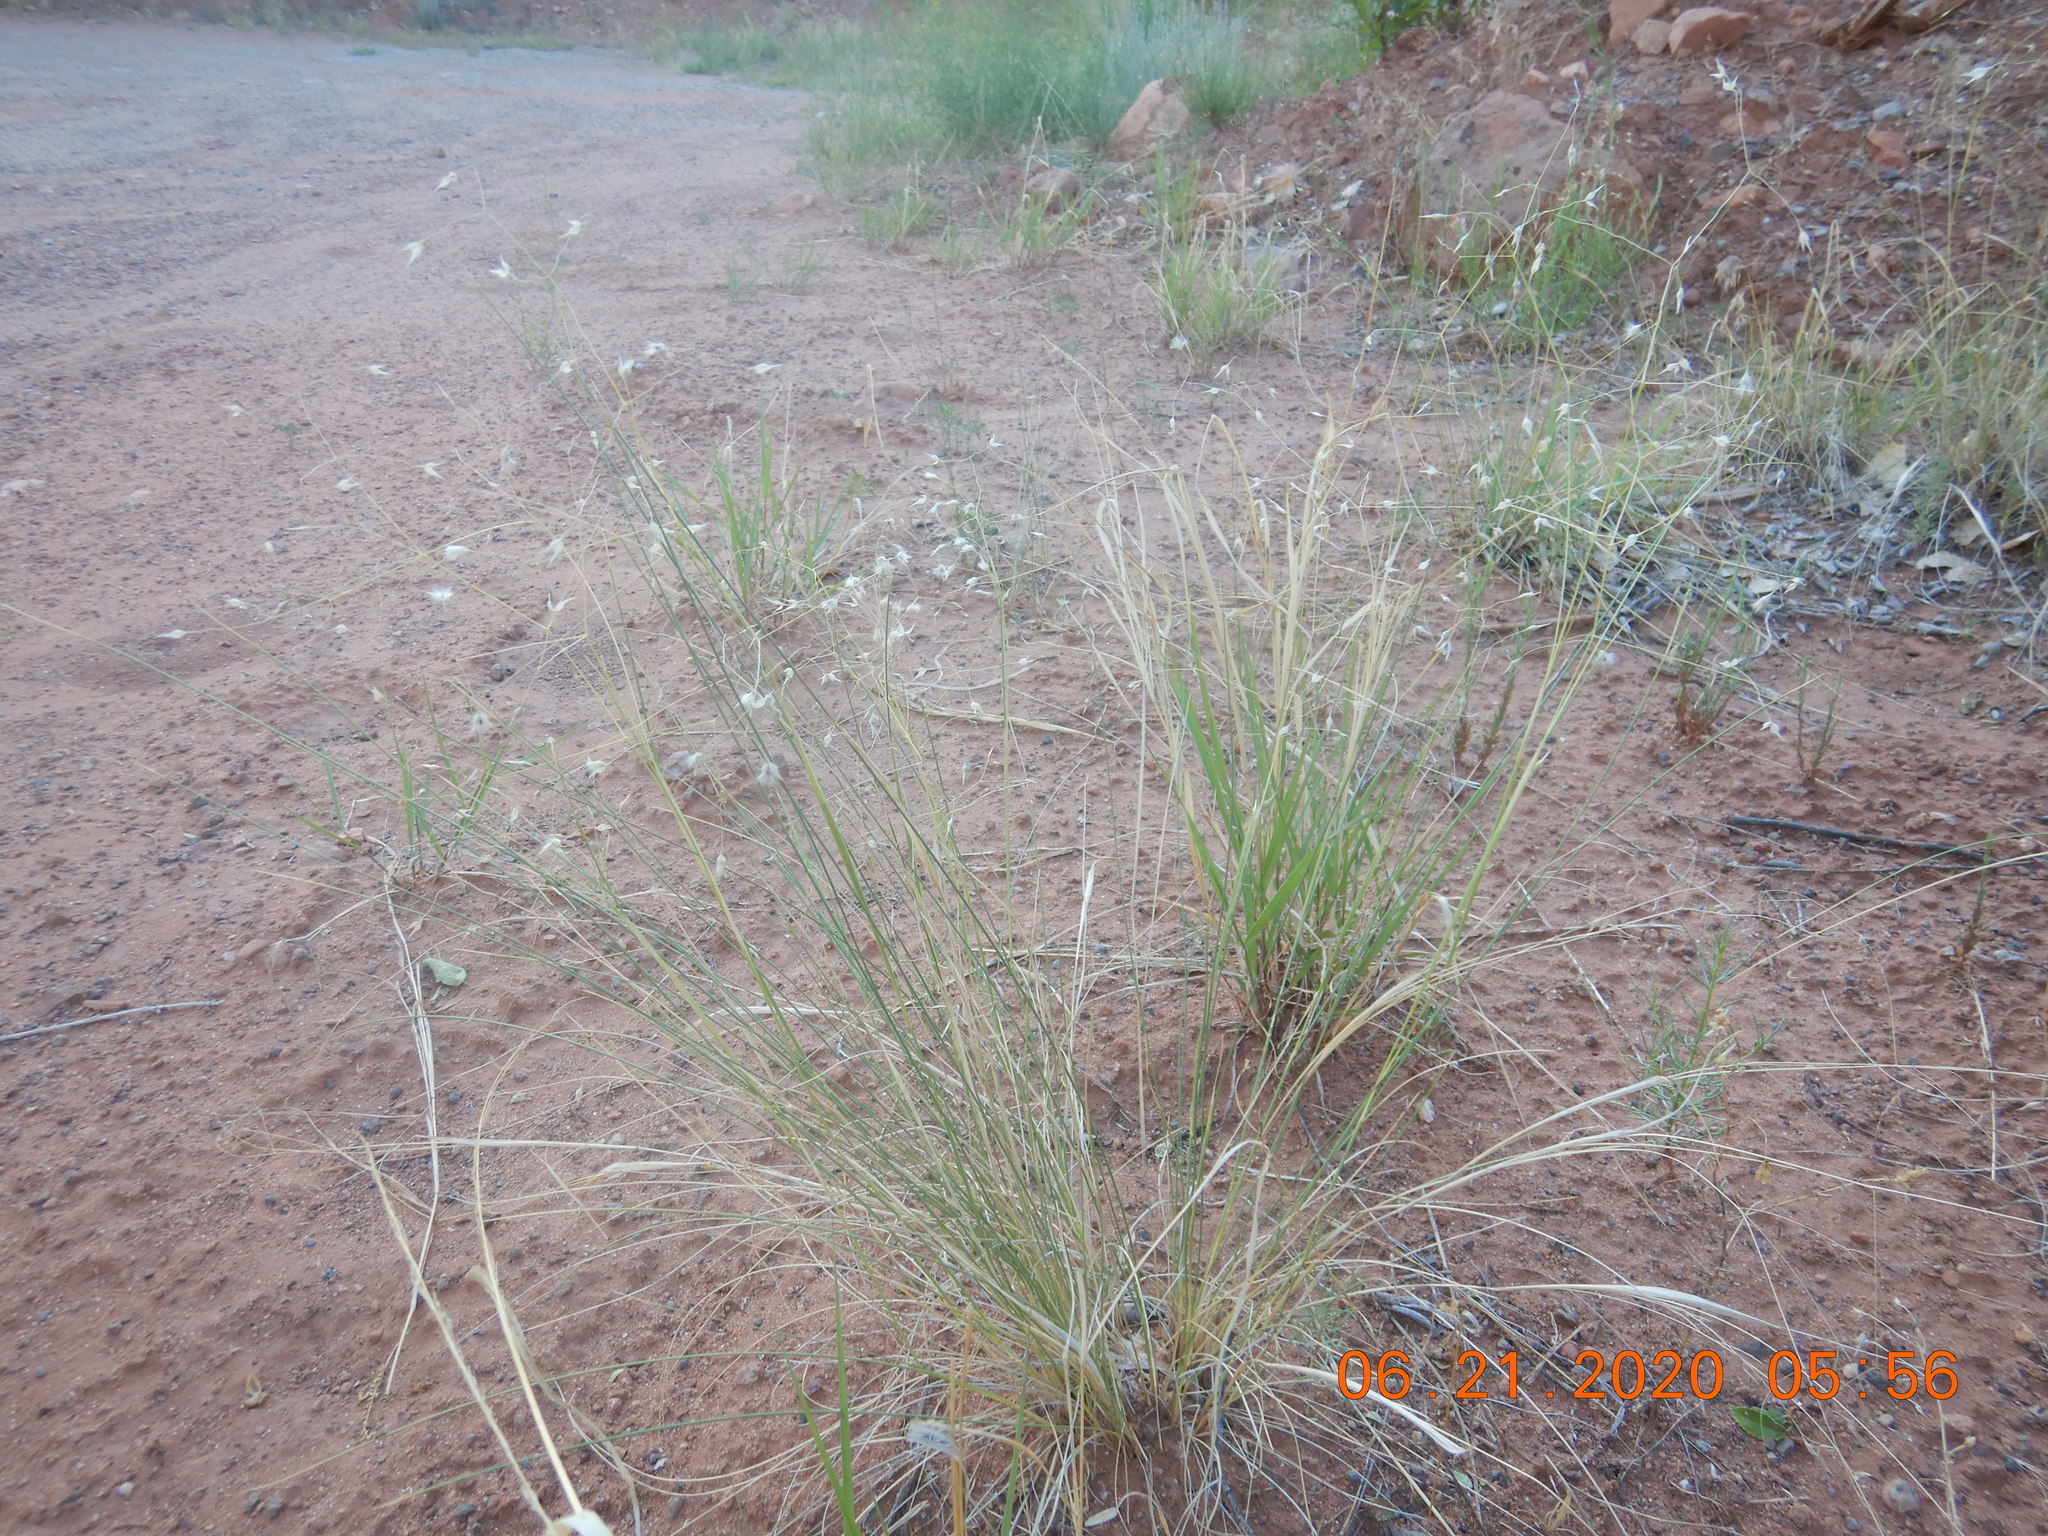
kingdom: Plantae
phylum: Tracheophyta
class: Liliopsida
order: Poales
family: Poaceae
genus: Eriocoma
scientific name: Eriocoma hymenoides
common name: Indian mountain ricegrass
